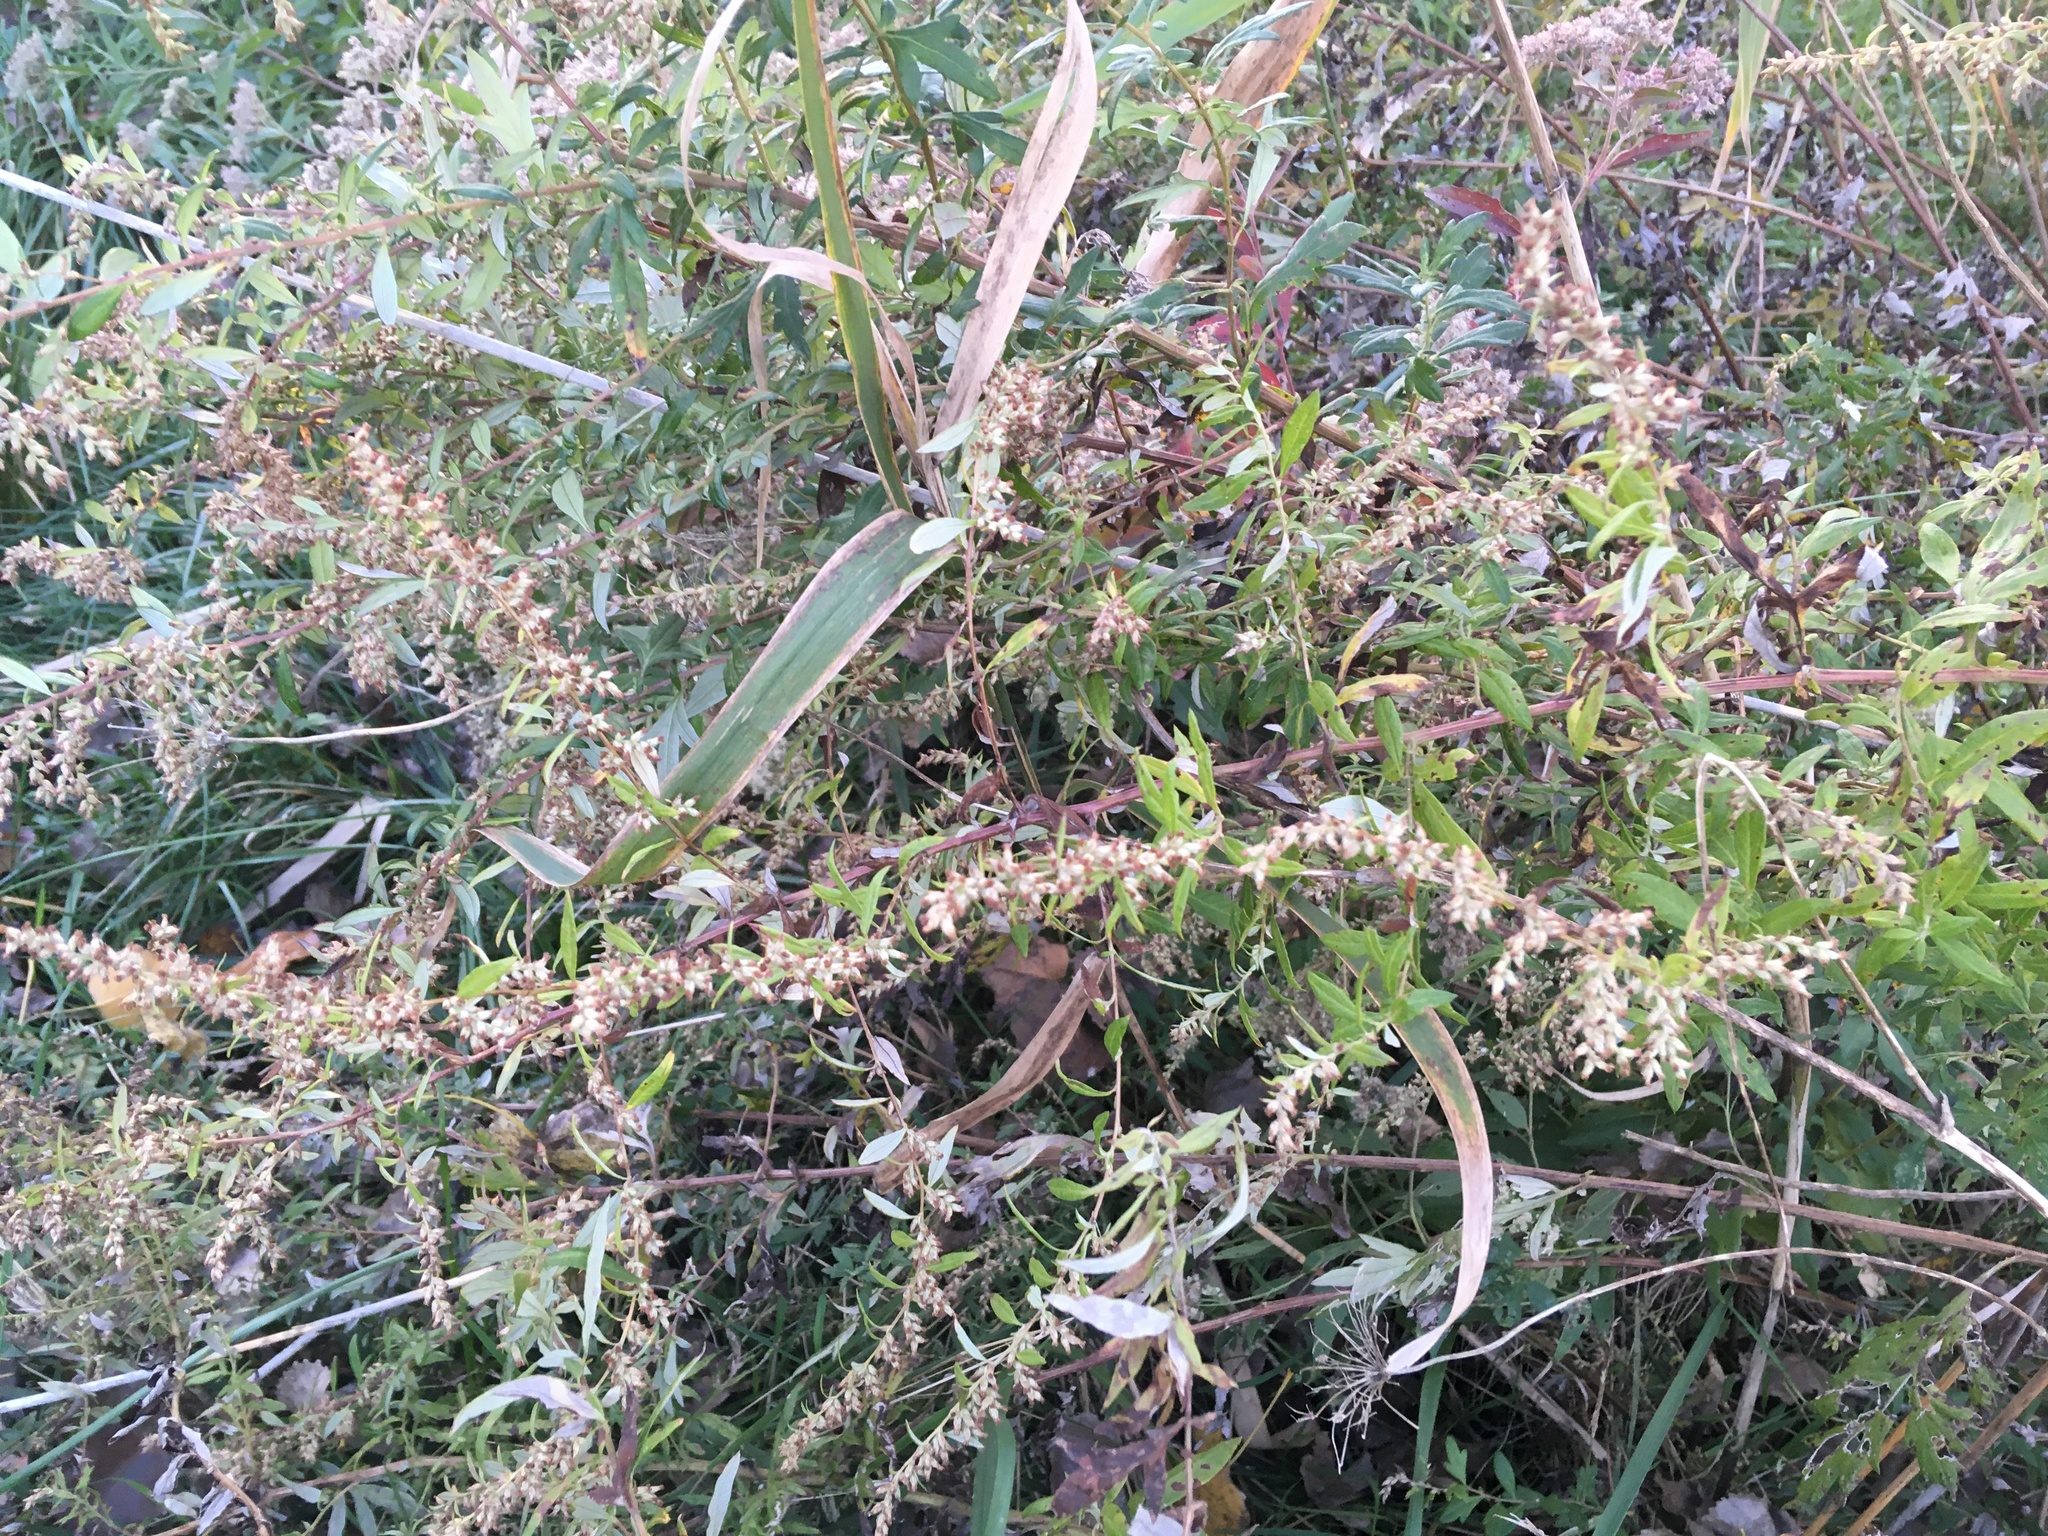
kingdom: Plantae
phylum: Tracheophyta
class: Magnoliopsida
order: Asterales
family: Asteraceae
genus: Artemisia
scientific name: Artemisia vulgaris
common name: Mugwort
